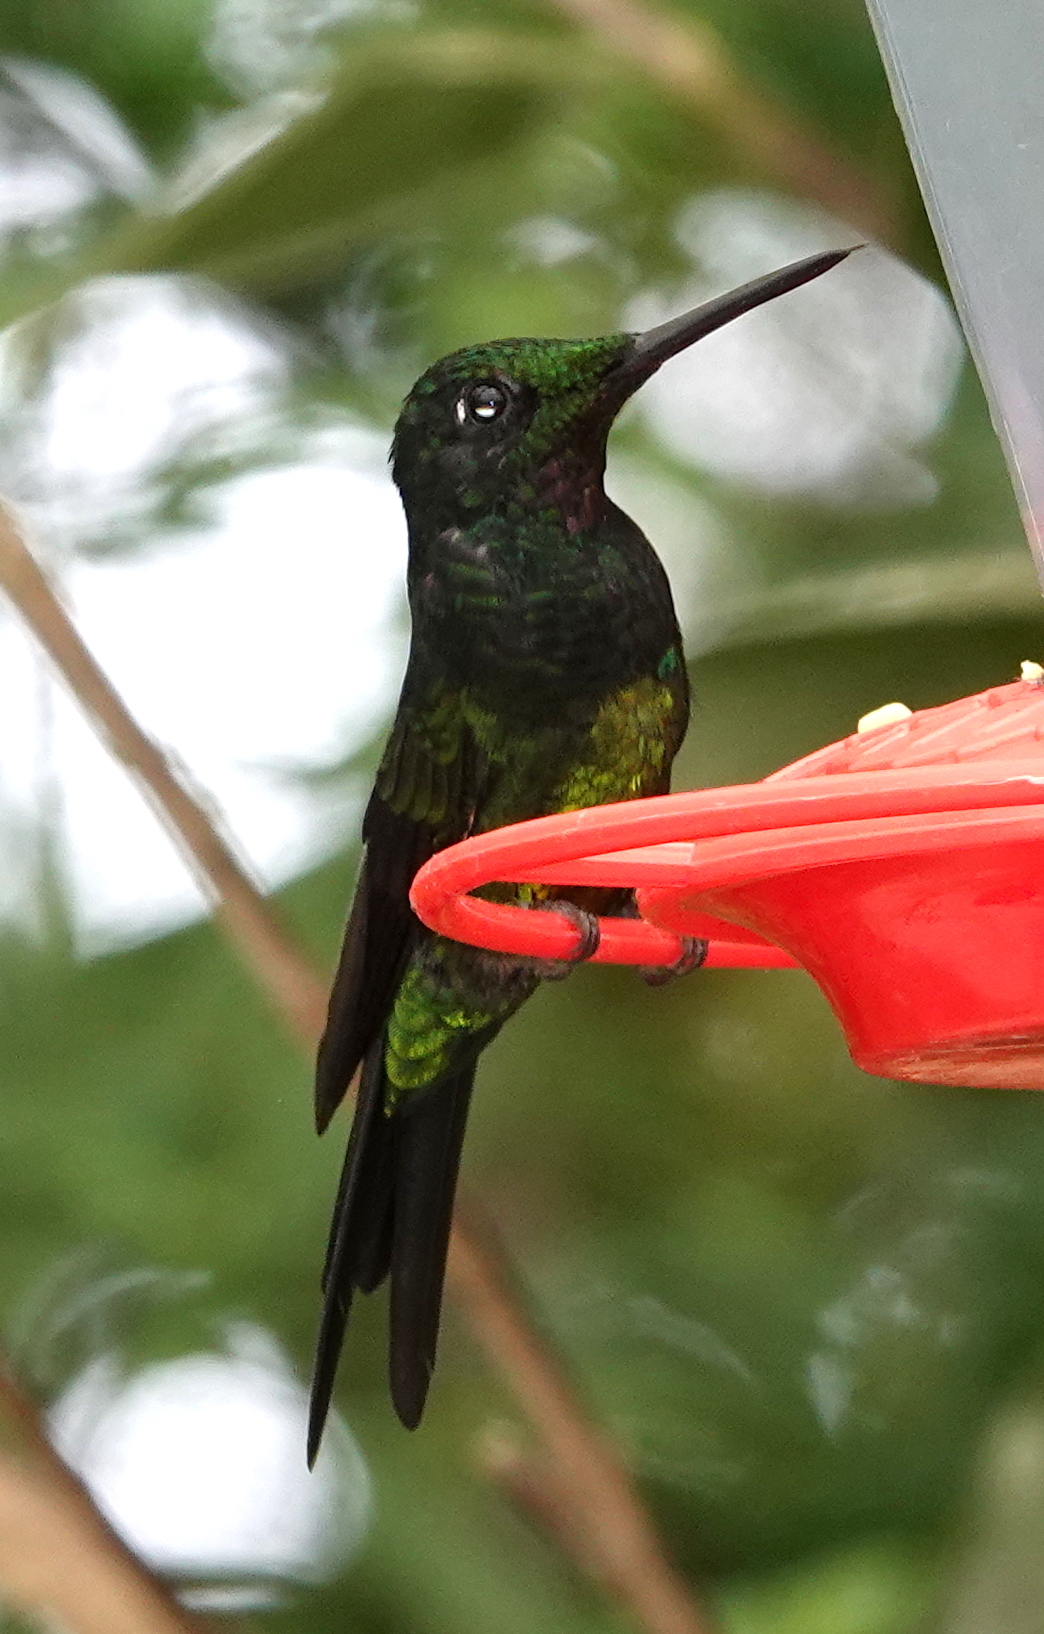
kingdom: Animalia
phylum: Chordata
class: Aves
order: Apodiformes
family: Trochilidae
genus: Heliodoxa
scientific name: Heliodoxa imperatrix
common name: Empress brilliant
